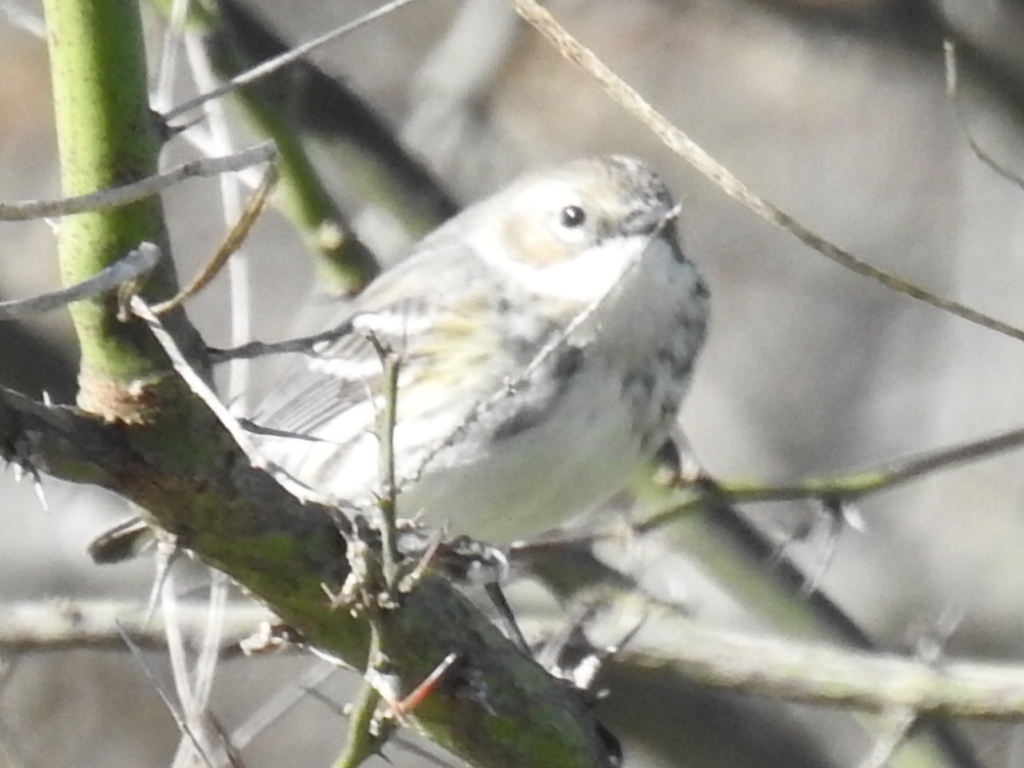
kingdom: Animalia
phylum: Chordata
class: Aves
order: Passeriformes
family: Parulidae
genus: Setophaga
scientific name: Setophaga coronata
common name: Myrtle warbler
